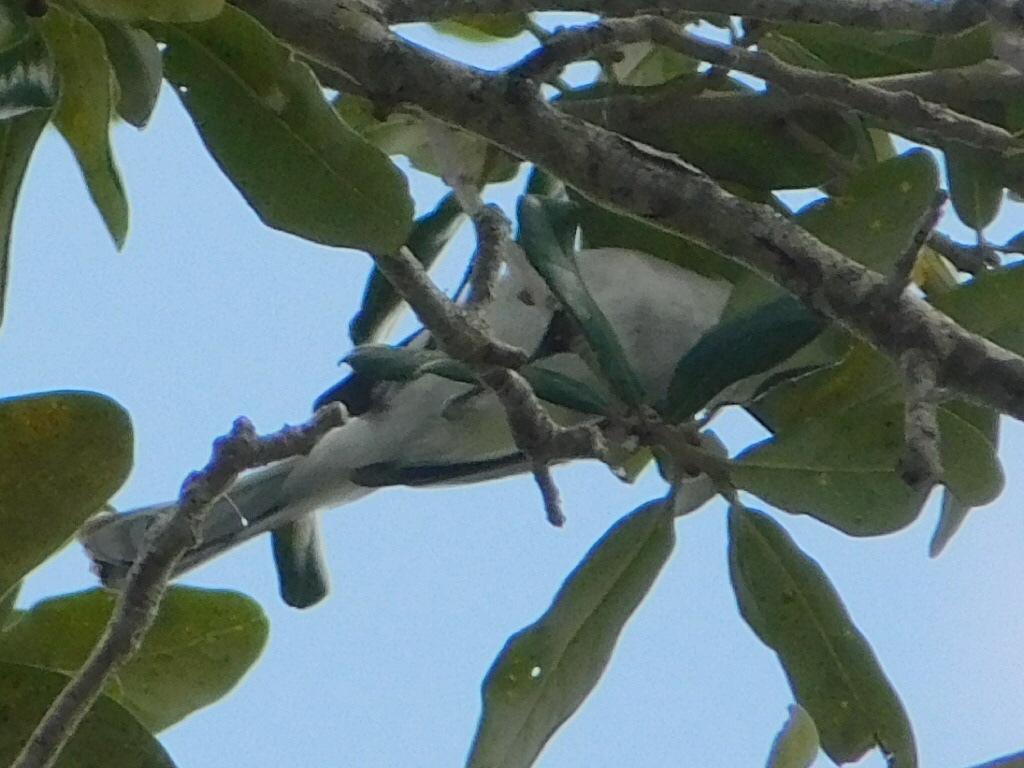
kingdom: Animalia
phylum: Chordata
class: Aves
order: Passeriformes
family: Vireonidae
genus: Vireo
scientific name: Vireo olivaceus
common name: Red-eyed vireo
